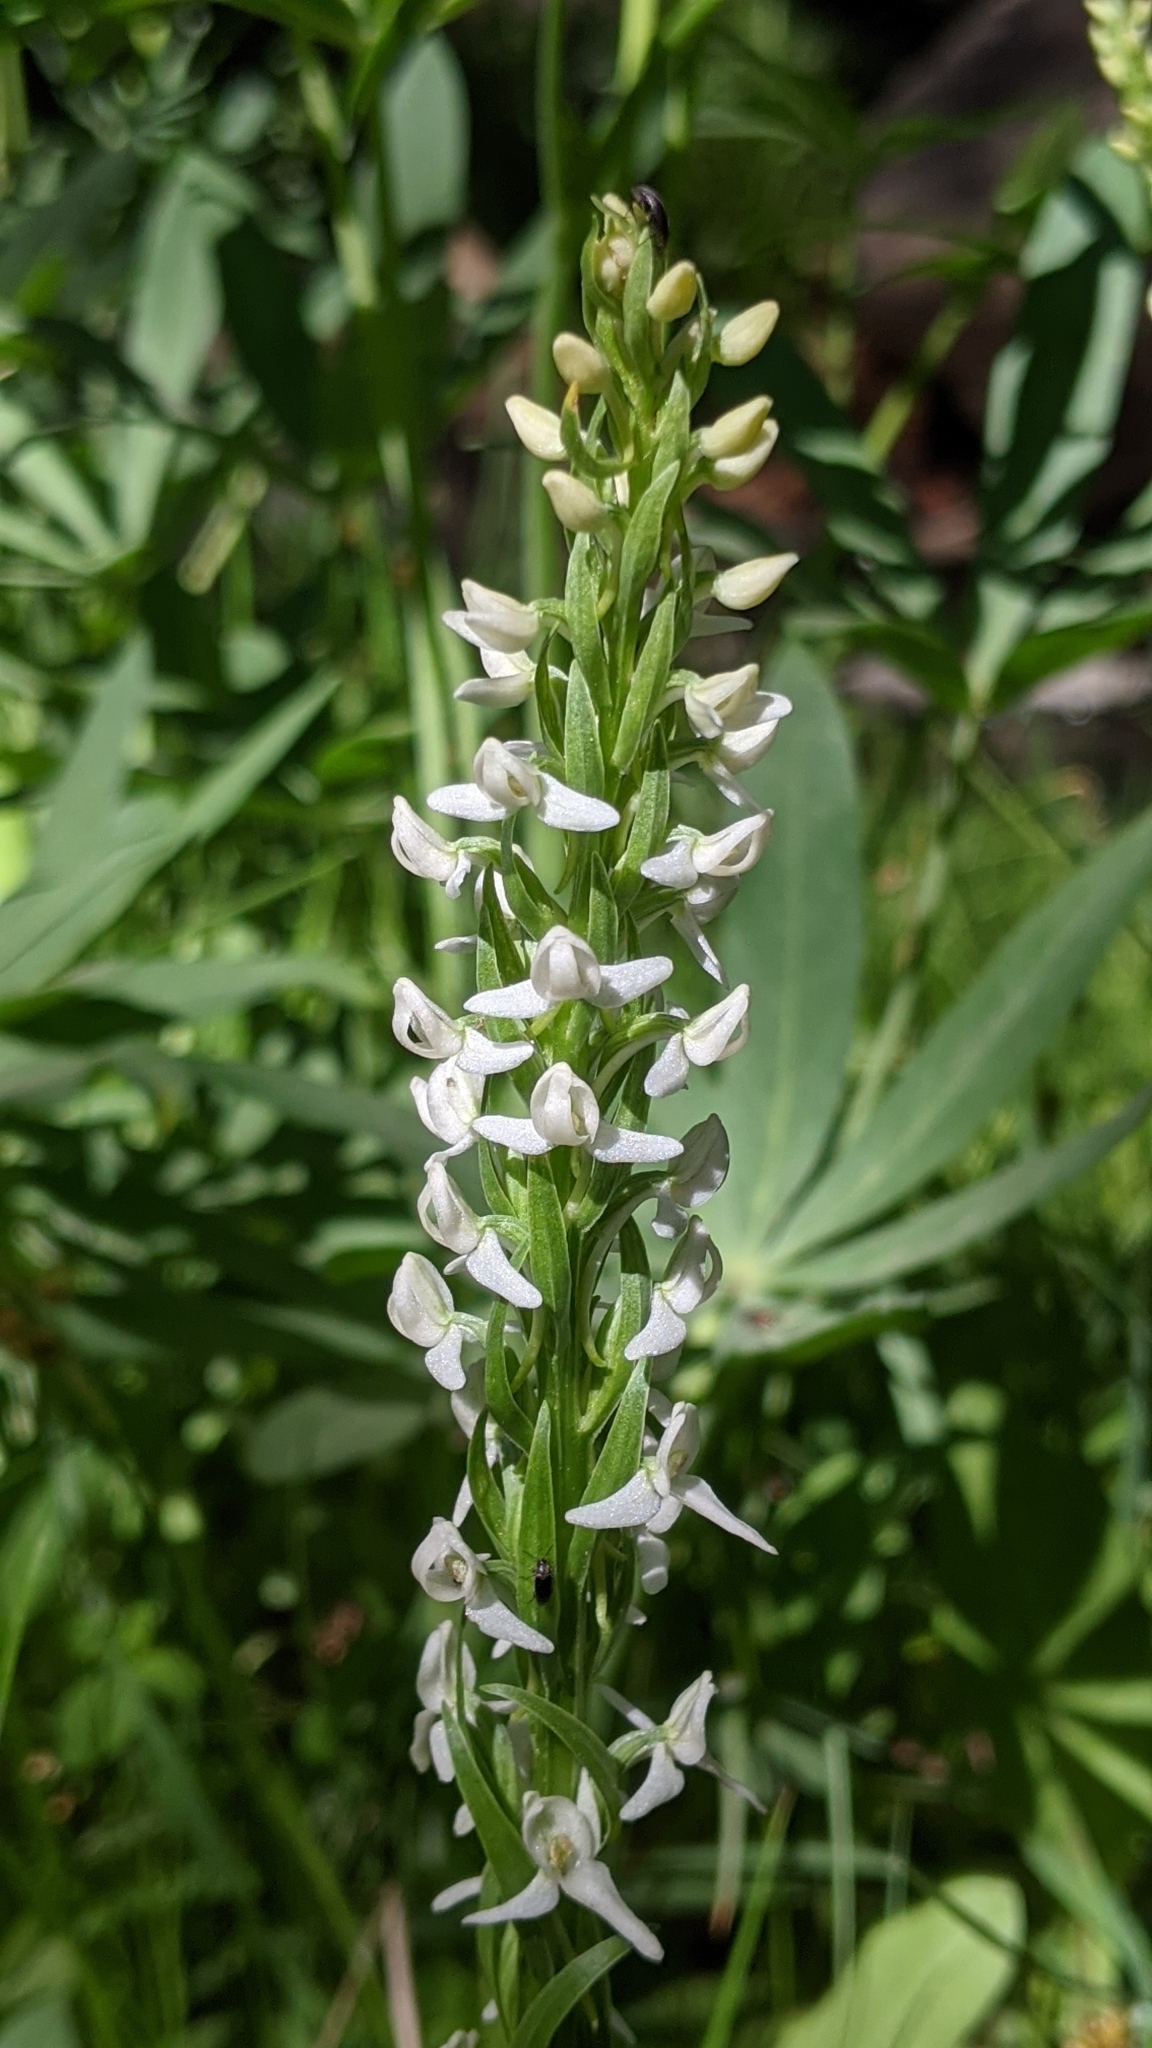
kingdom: Plantae
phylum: Tracheophyta
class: Liliopsida
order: Asparagales
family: Orchidaceae
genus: Platanthera
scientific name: Platanthera dilatata
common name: Bog candles
